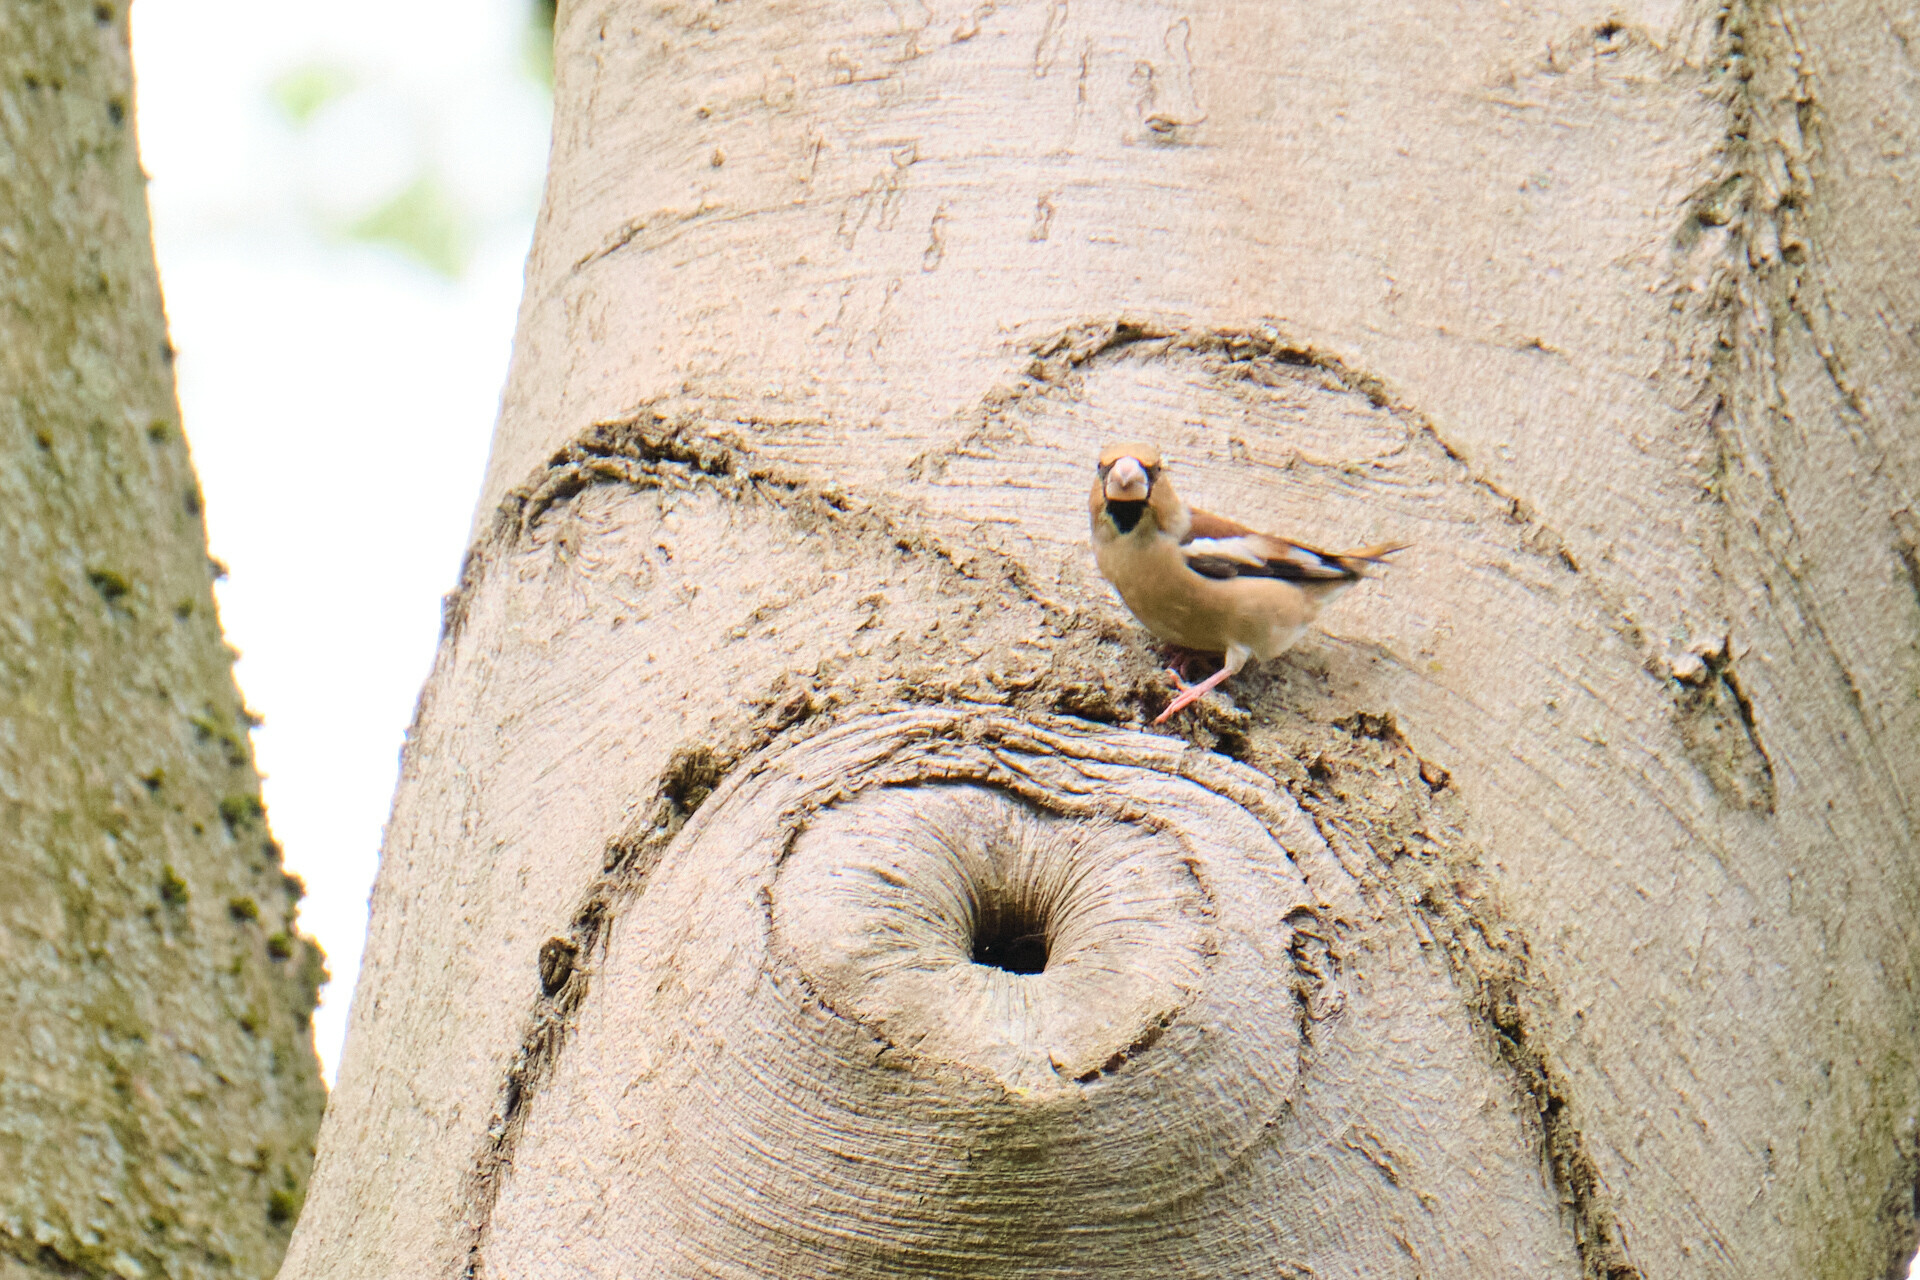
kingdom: Animalia
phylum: Chordata
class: Aves
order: Passeriformes
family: Fringillidae
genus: Coccothraustes
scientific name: Coccothraustes coccothraustes
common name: Hawfinch
